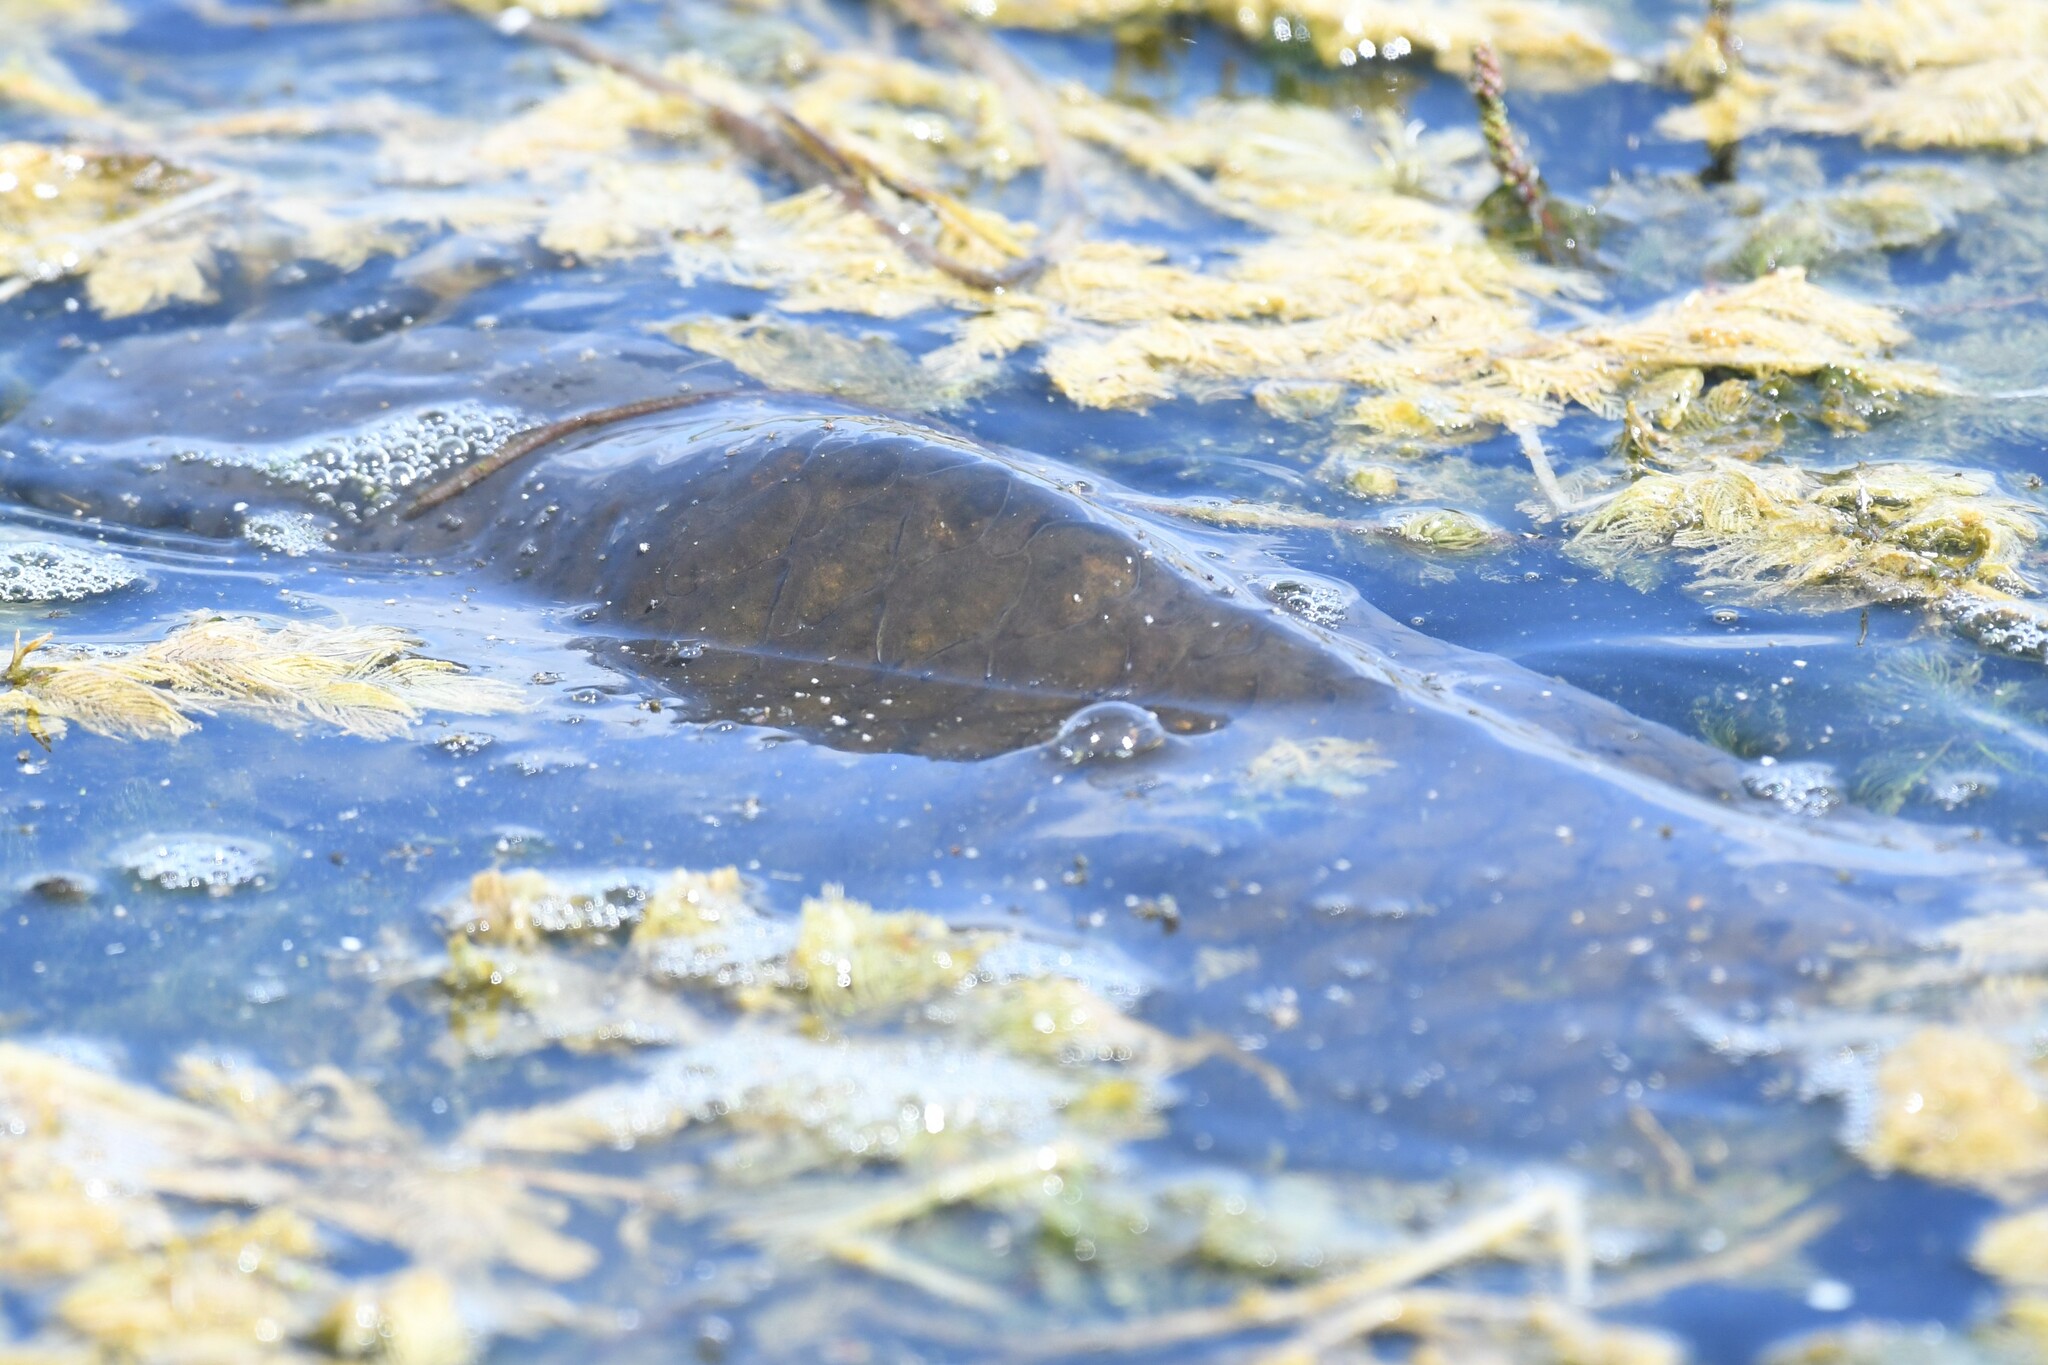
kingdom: Animalia
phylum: Chordata
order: Cypriniformes
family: Cyprinidae
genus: Cyprinus
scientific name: Cyprinus carpio
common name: Common carp
